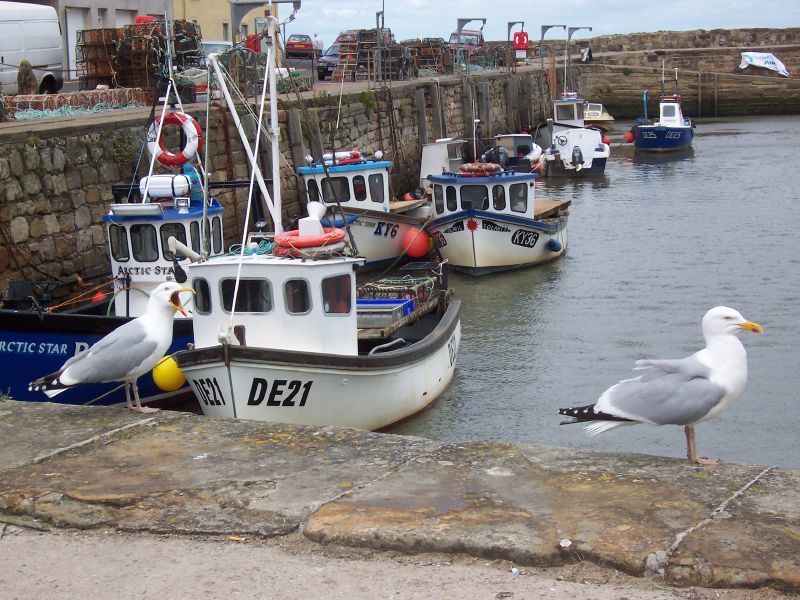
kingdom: Animalia
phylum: Chordata
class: Aves
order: Charadriiformes
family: Laridae
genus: Larus
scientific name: Larus argentatus
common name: Herring gull
